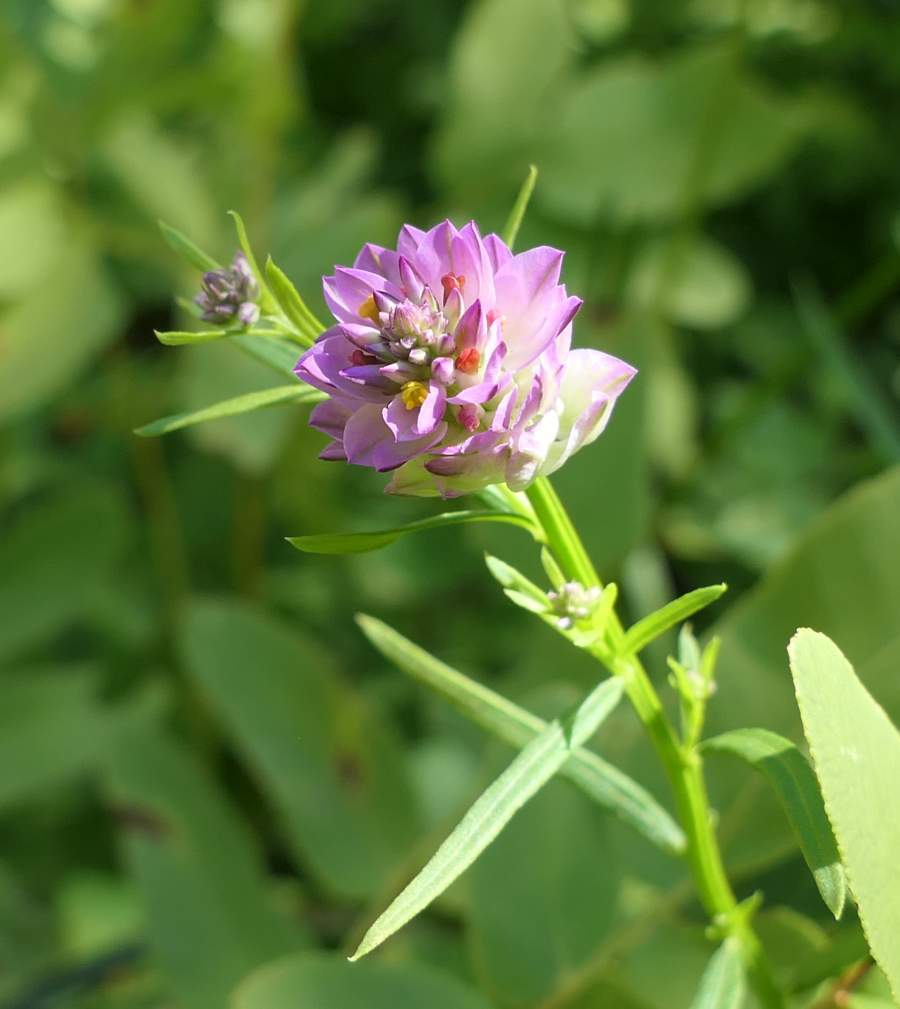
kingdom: Plantae
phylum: Tracheophyta
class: Magnoliopsida
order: Fabales
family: Polygalaceae
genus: Polygala
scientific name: Polygala sanguinea
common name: Blood milkwort
